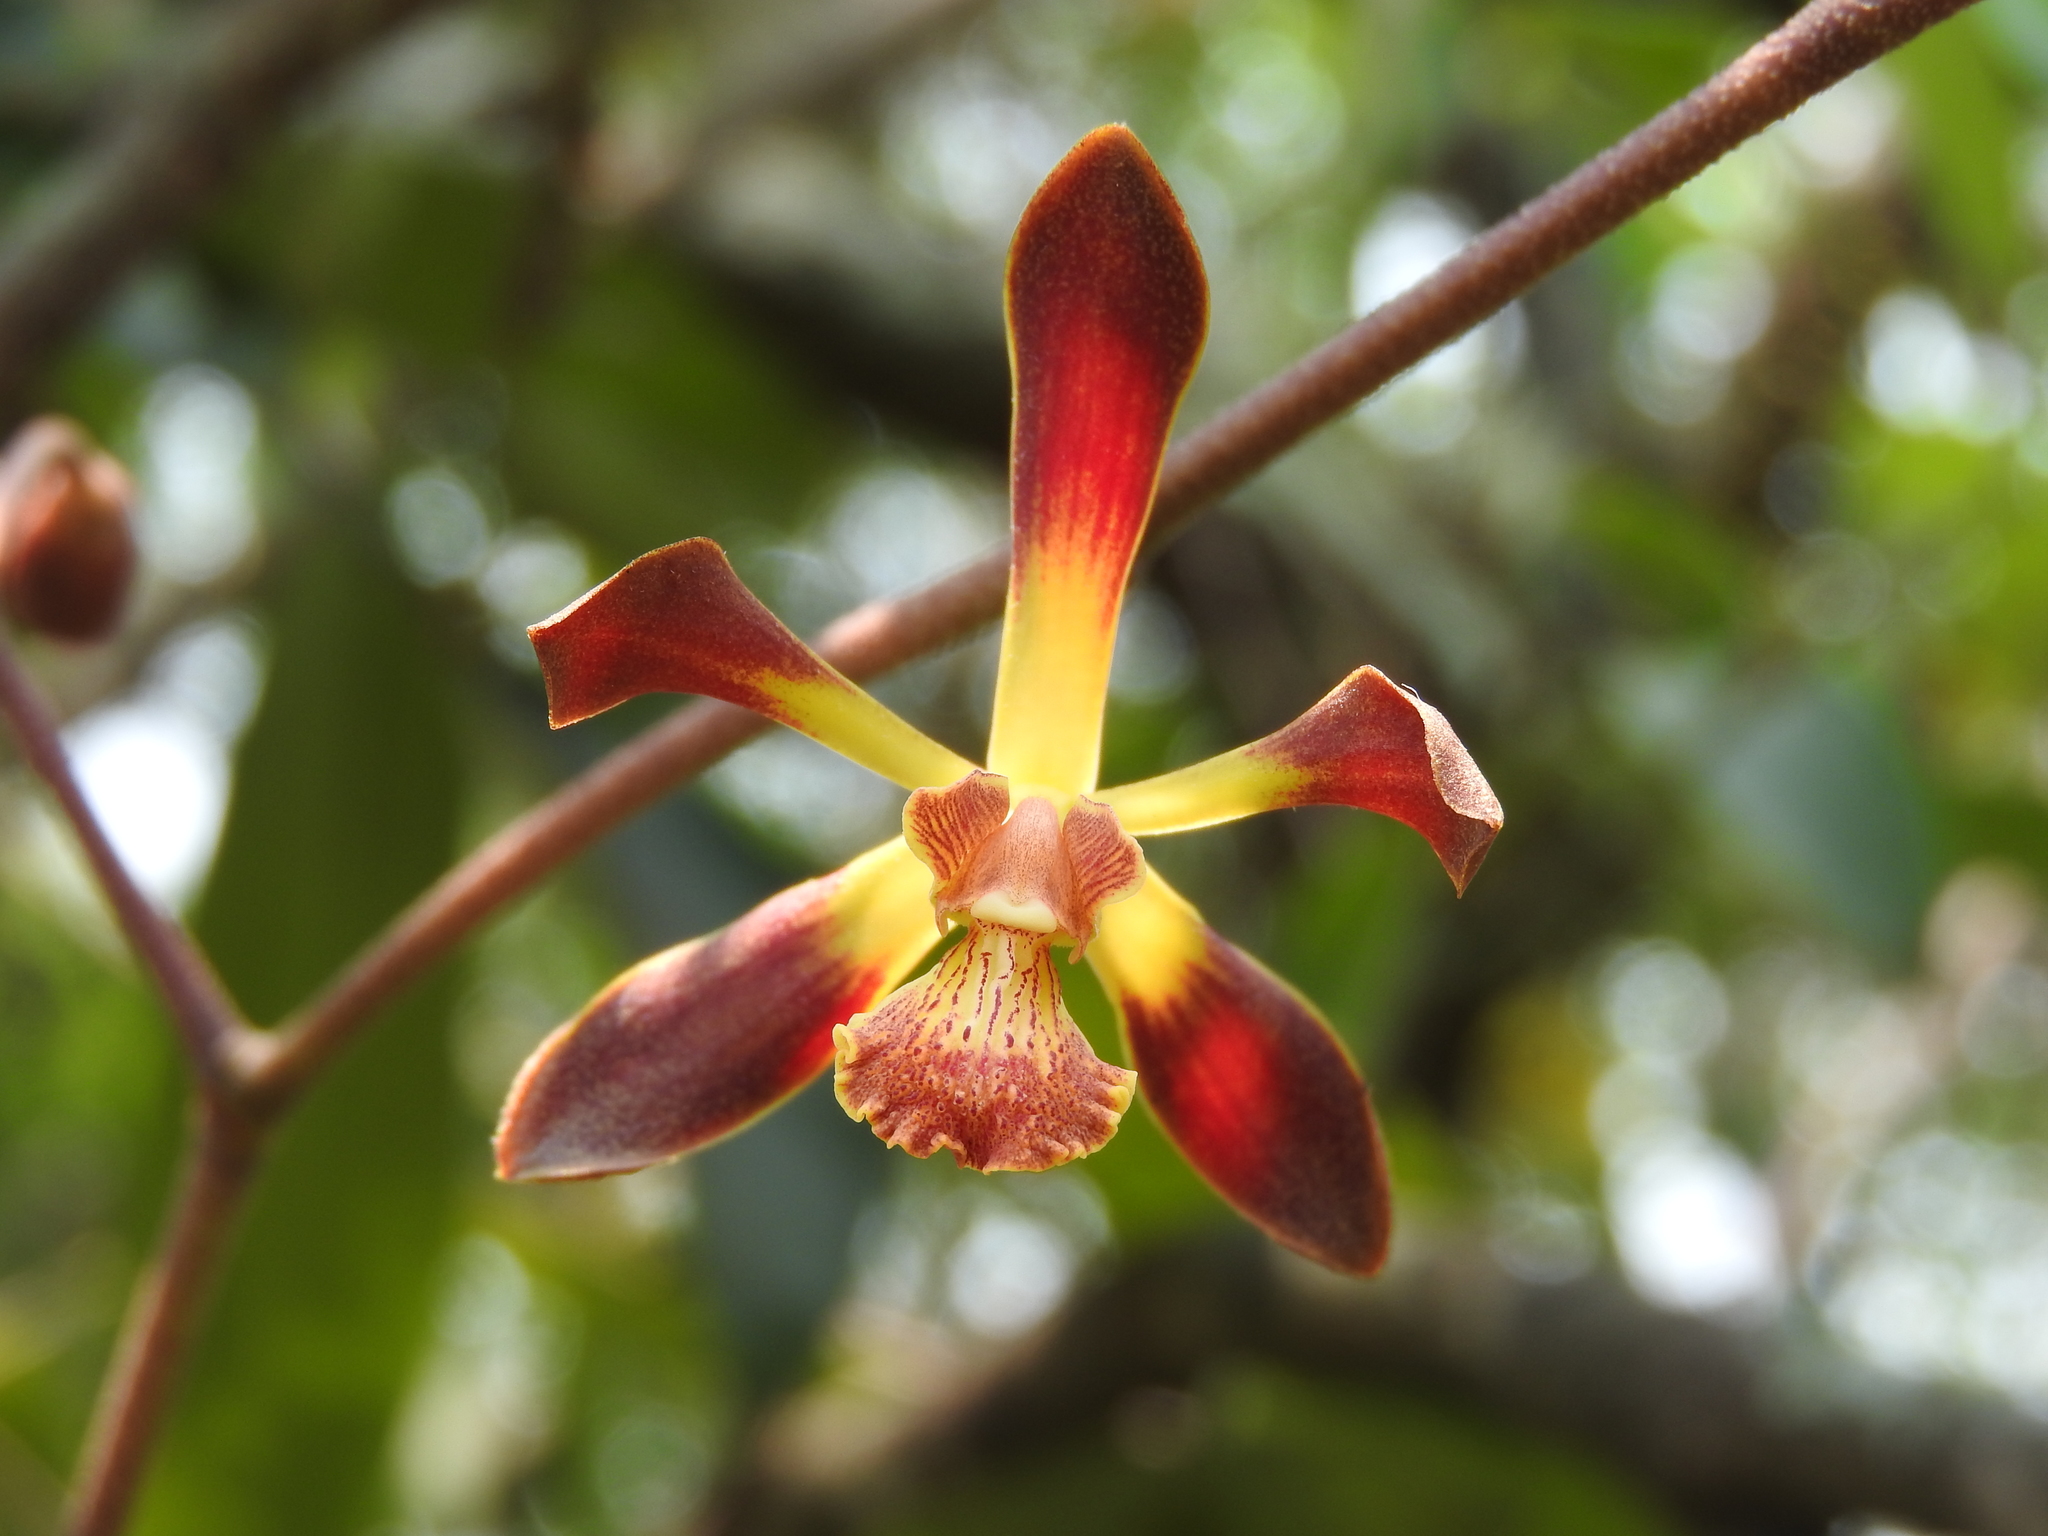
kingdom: Plantae
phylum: Tracheophyta
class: Liliopsida
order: Asparagales
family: Orchidaceae
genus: Encyclia
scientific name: Encyclia parviflora
